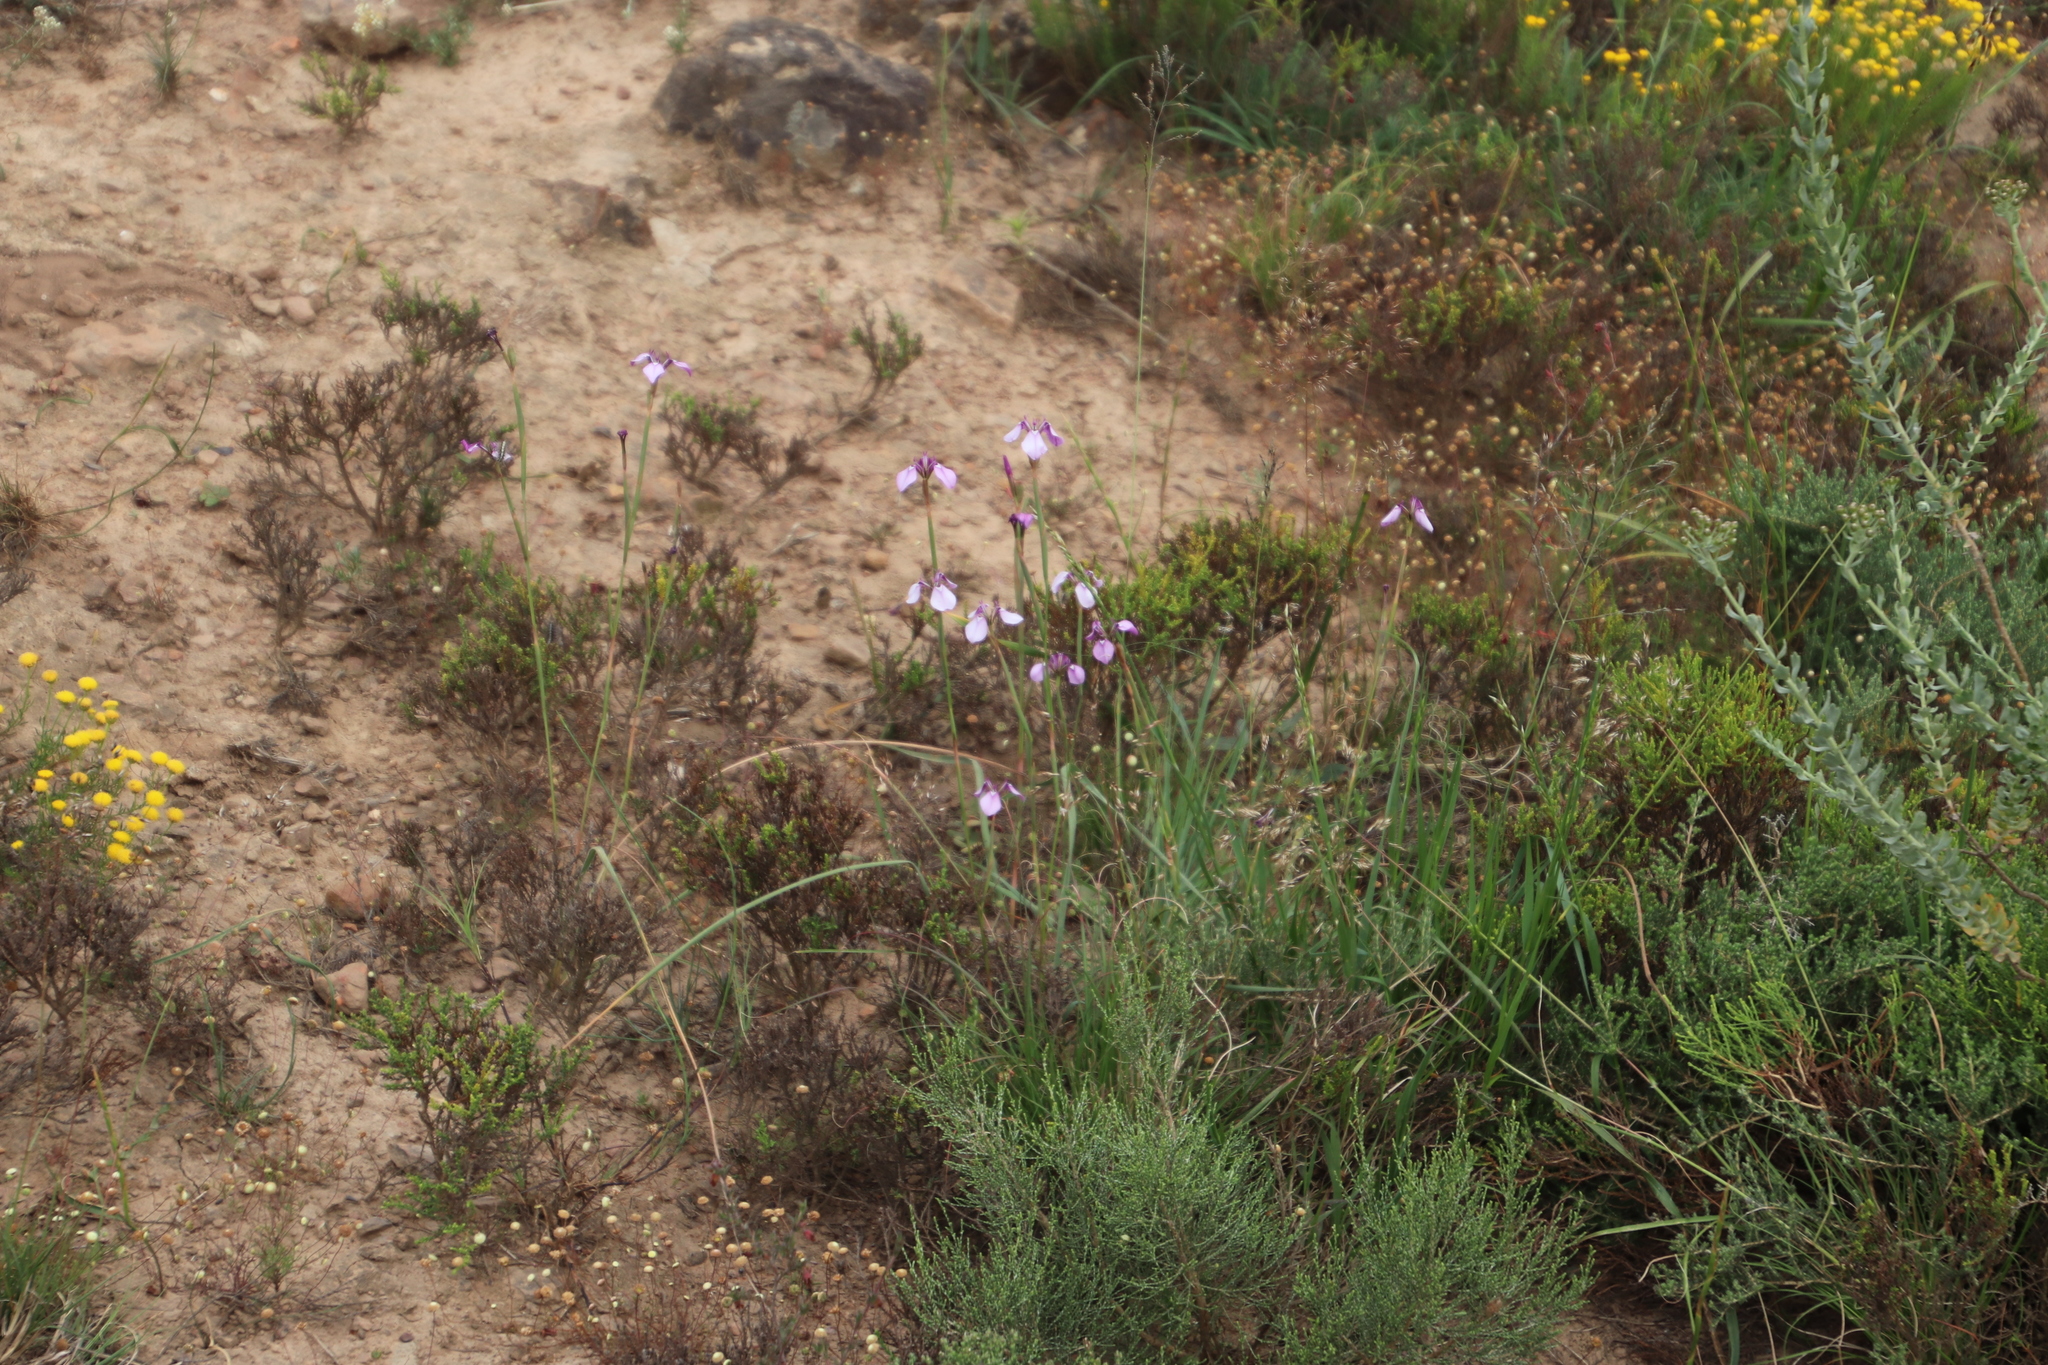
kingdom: Plantae
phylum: Tracheophyta
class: Liliopsida
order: Asparagales
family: Iridaceae
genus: Moraea
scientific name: Moraea debilis
